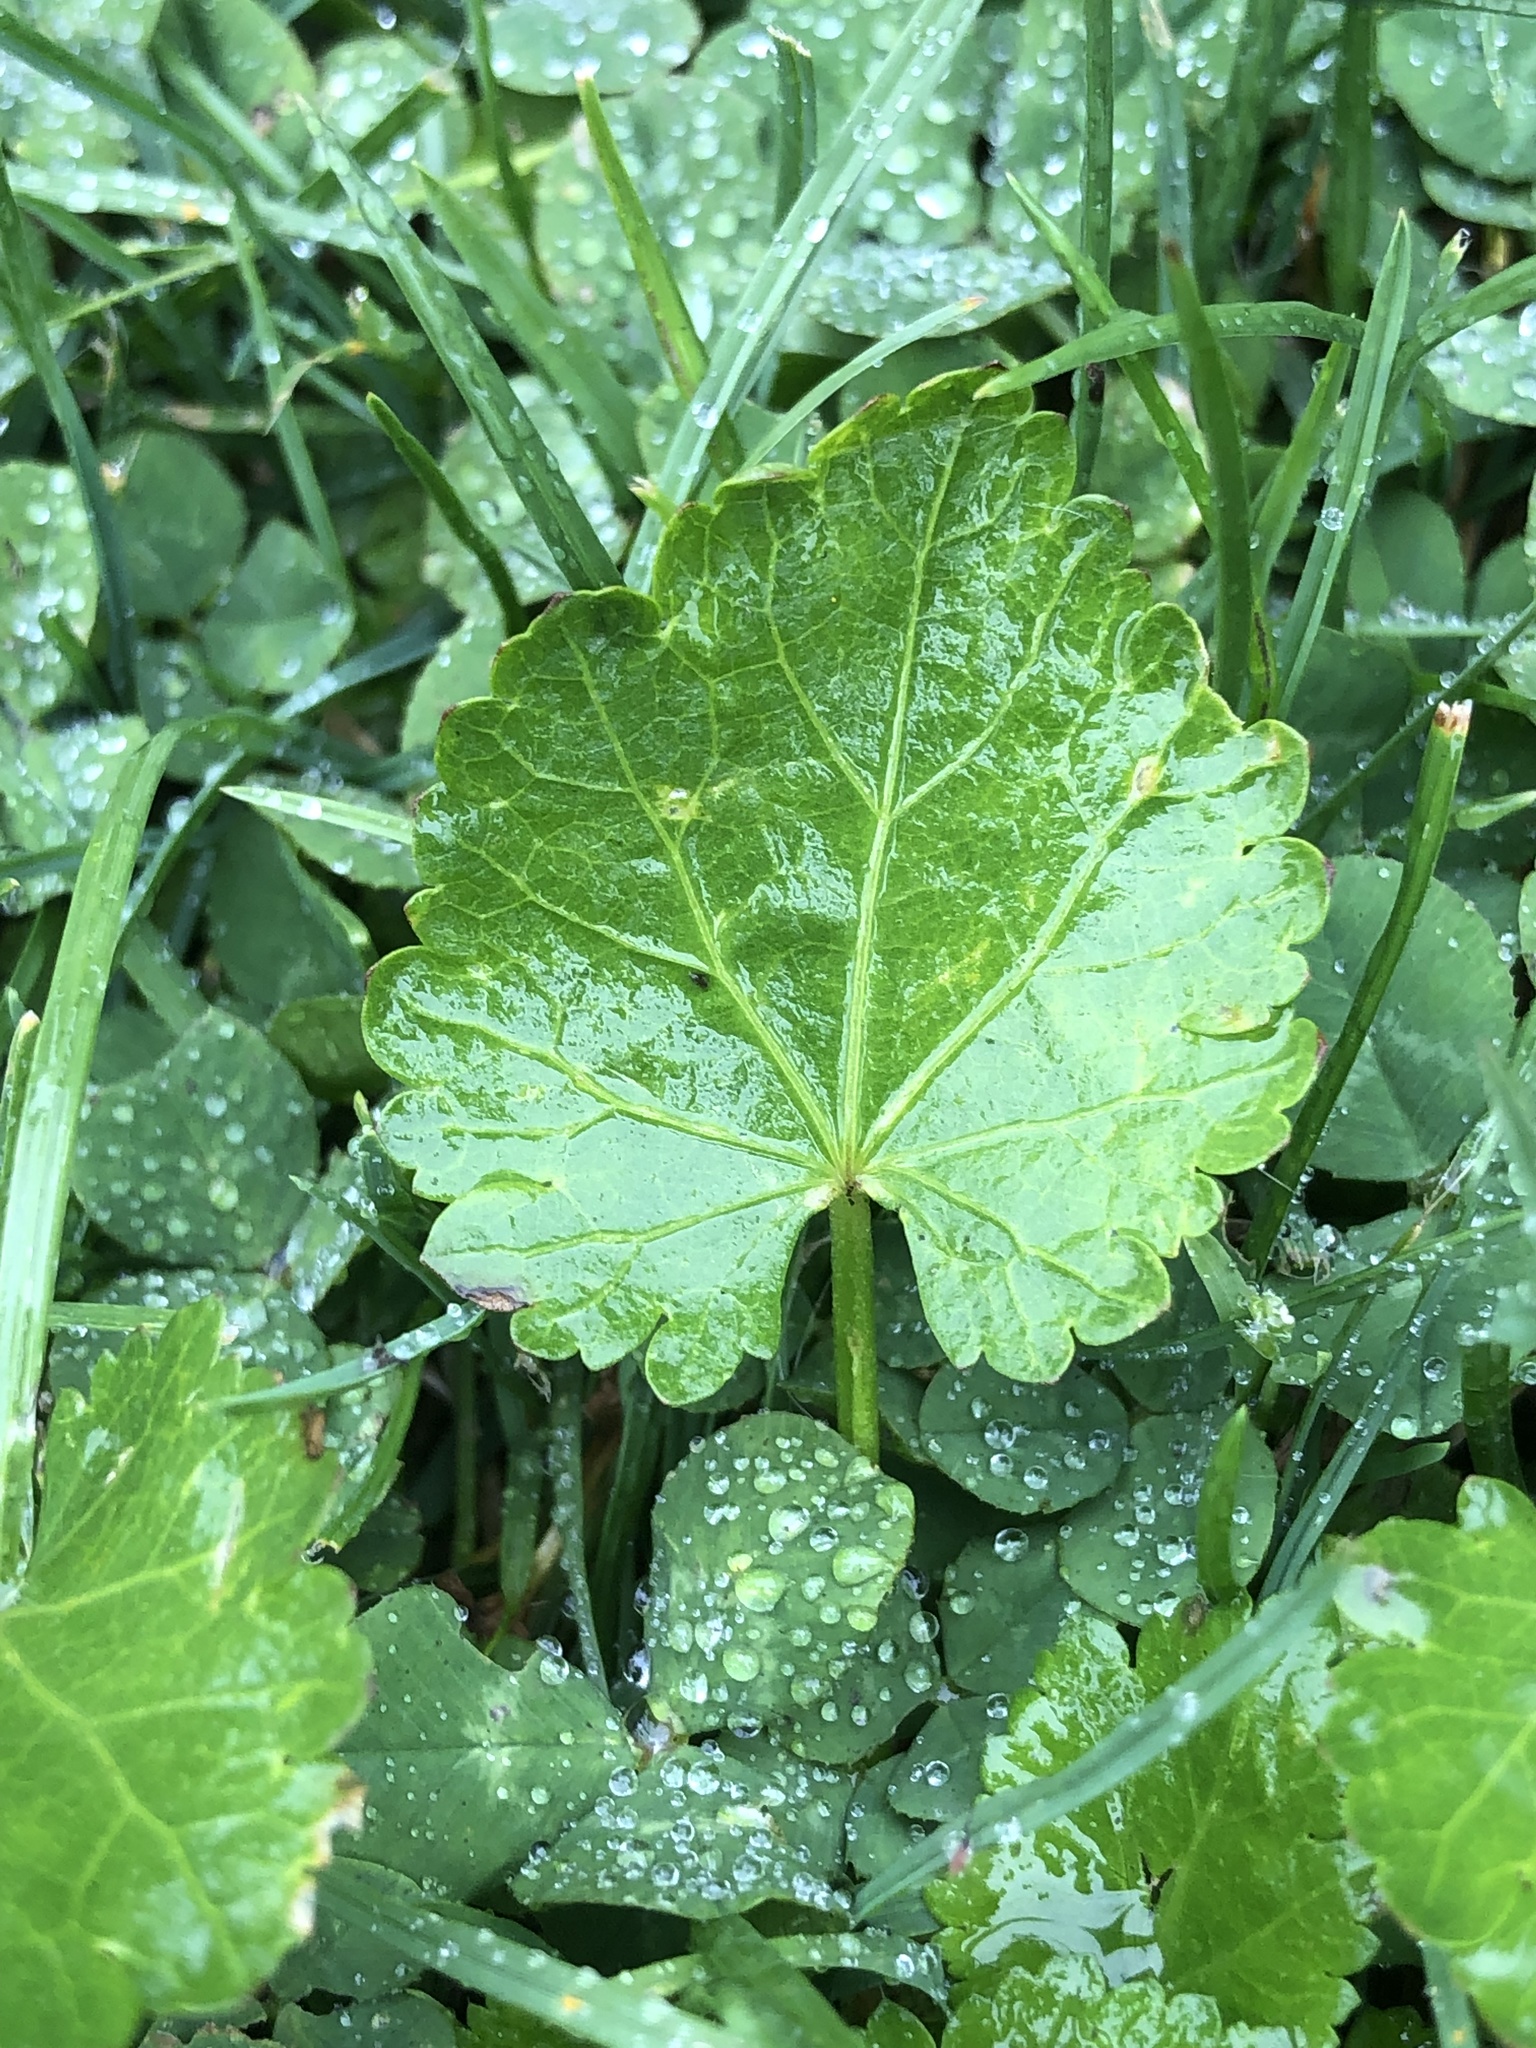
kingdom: Plantae
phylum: Tracheophyta
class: Magnoliopsida
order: Malvales
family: Malvaceae
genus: Modiola
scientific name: Modiola caroliniana
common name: Carolina bristlemallow
